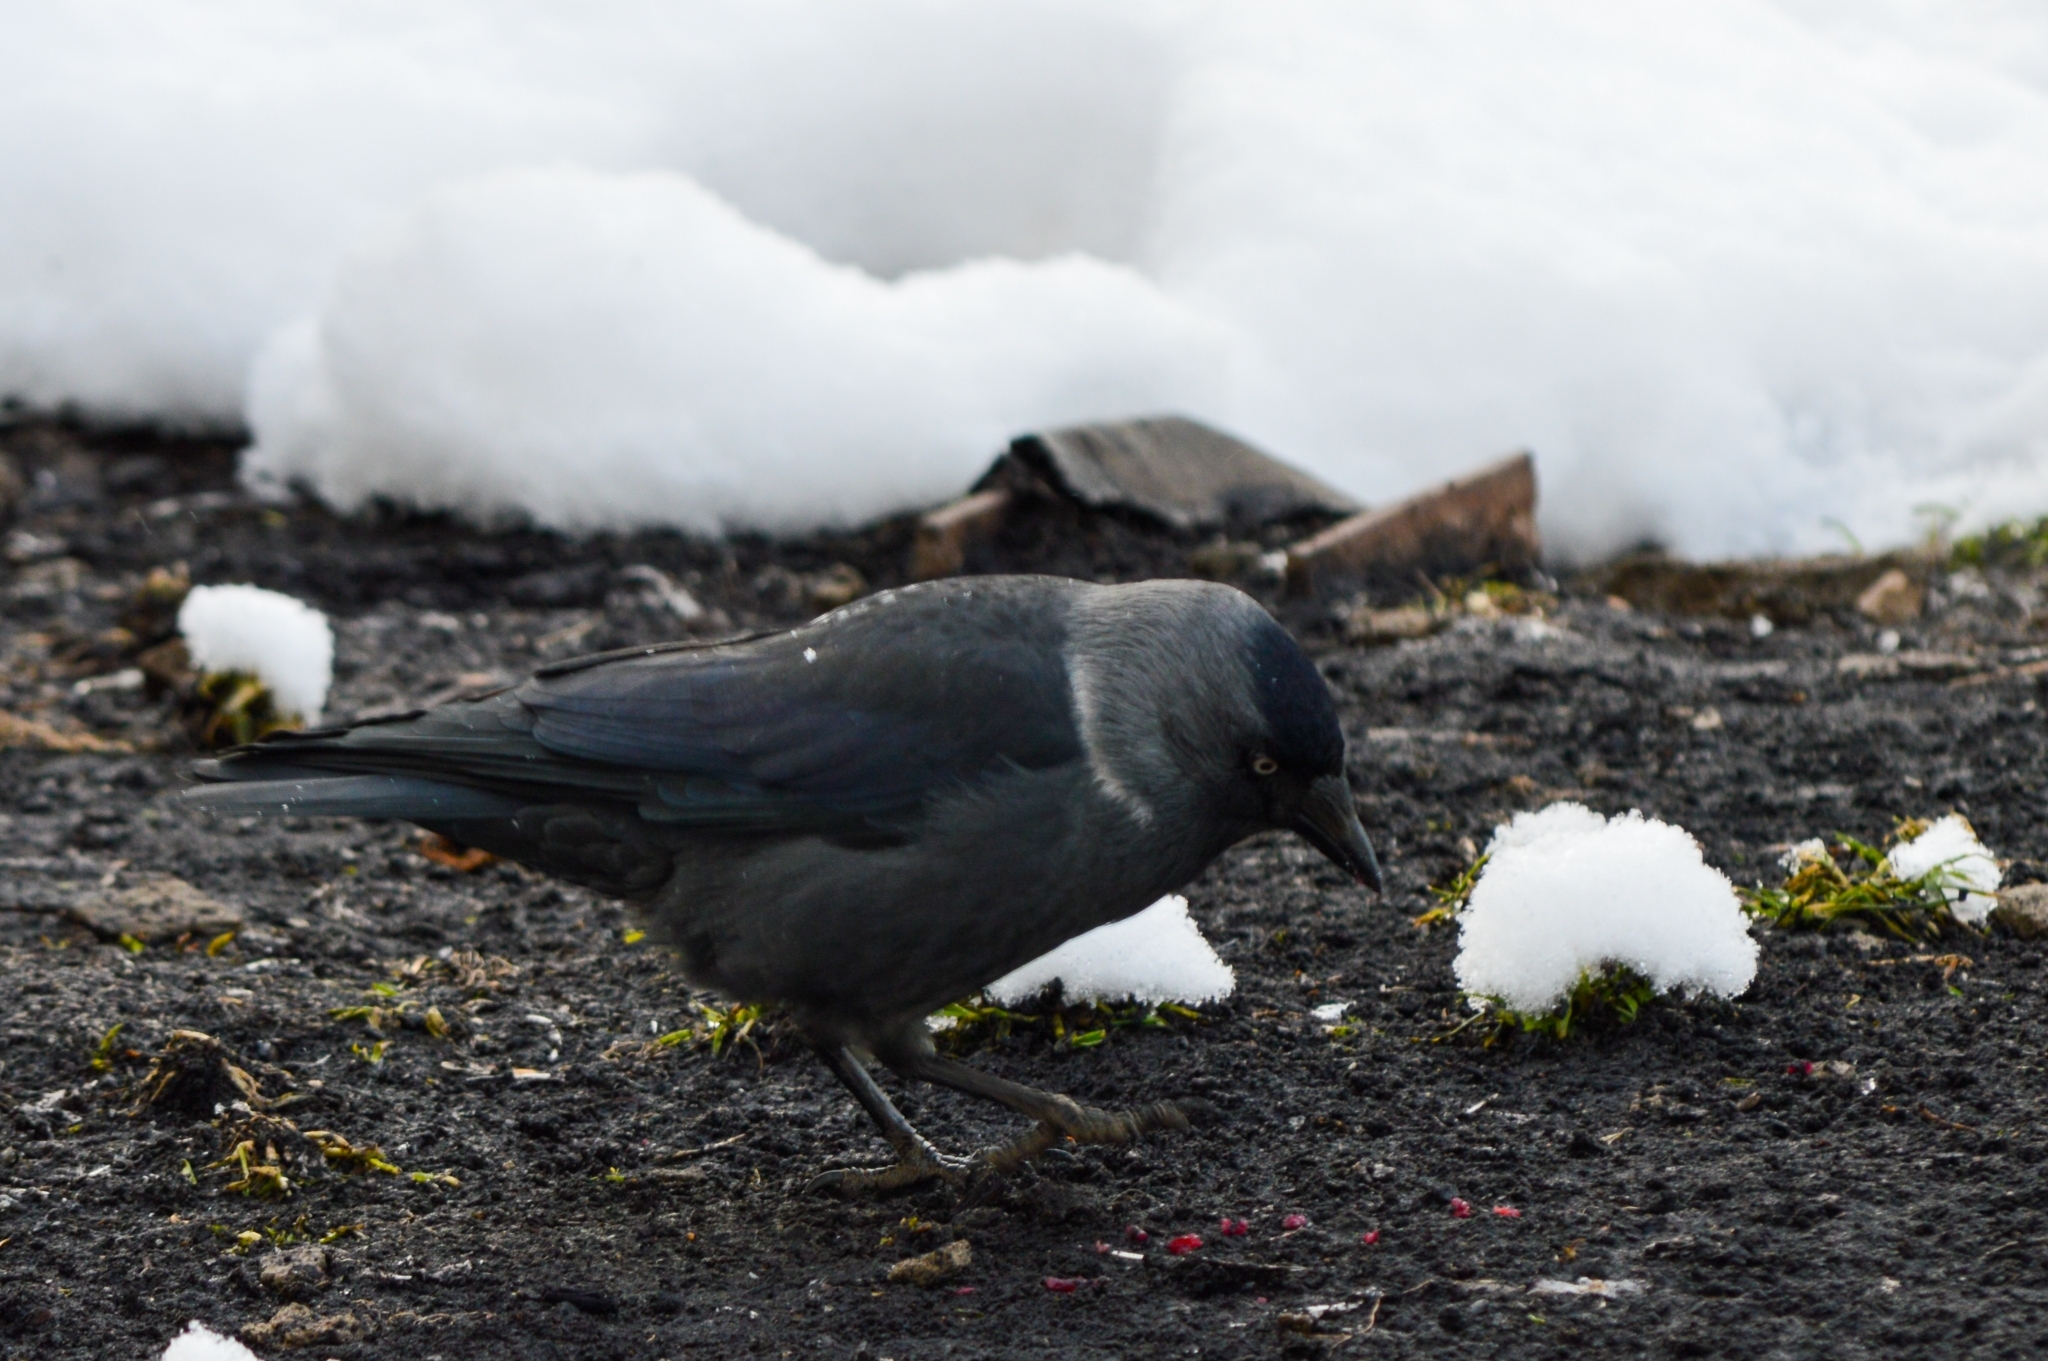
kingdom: Animalia
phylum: Chordata
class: Aves
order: Passeriformes
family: Corvidae
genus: Coloeus
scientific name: Coloeus monedula
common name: Western jackdaw
